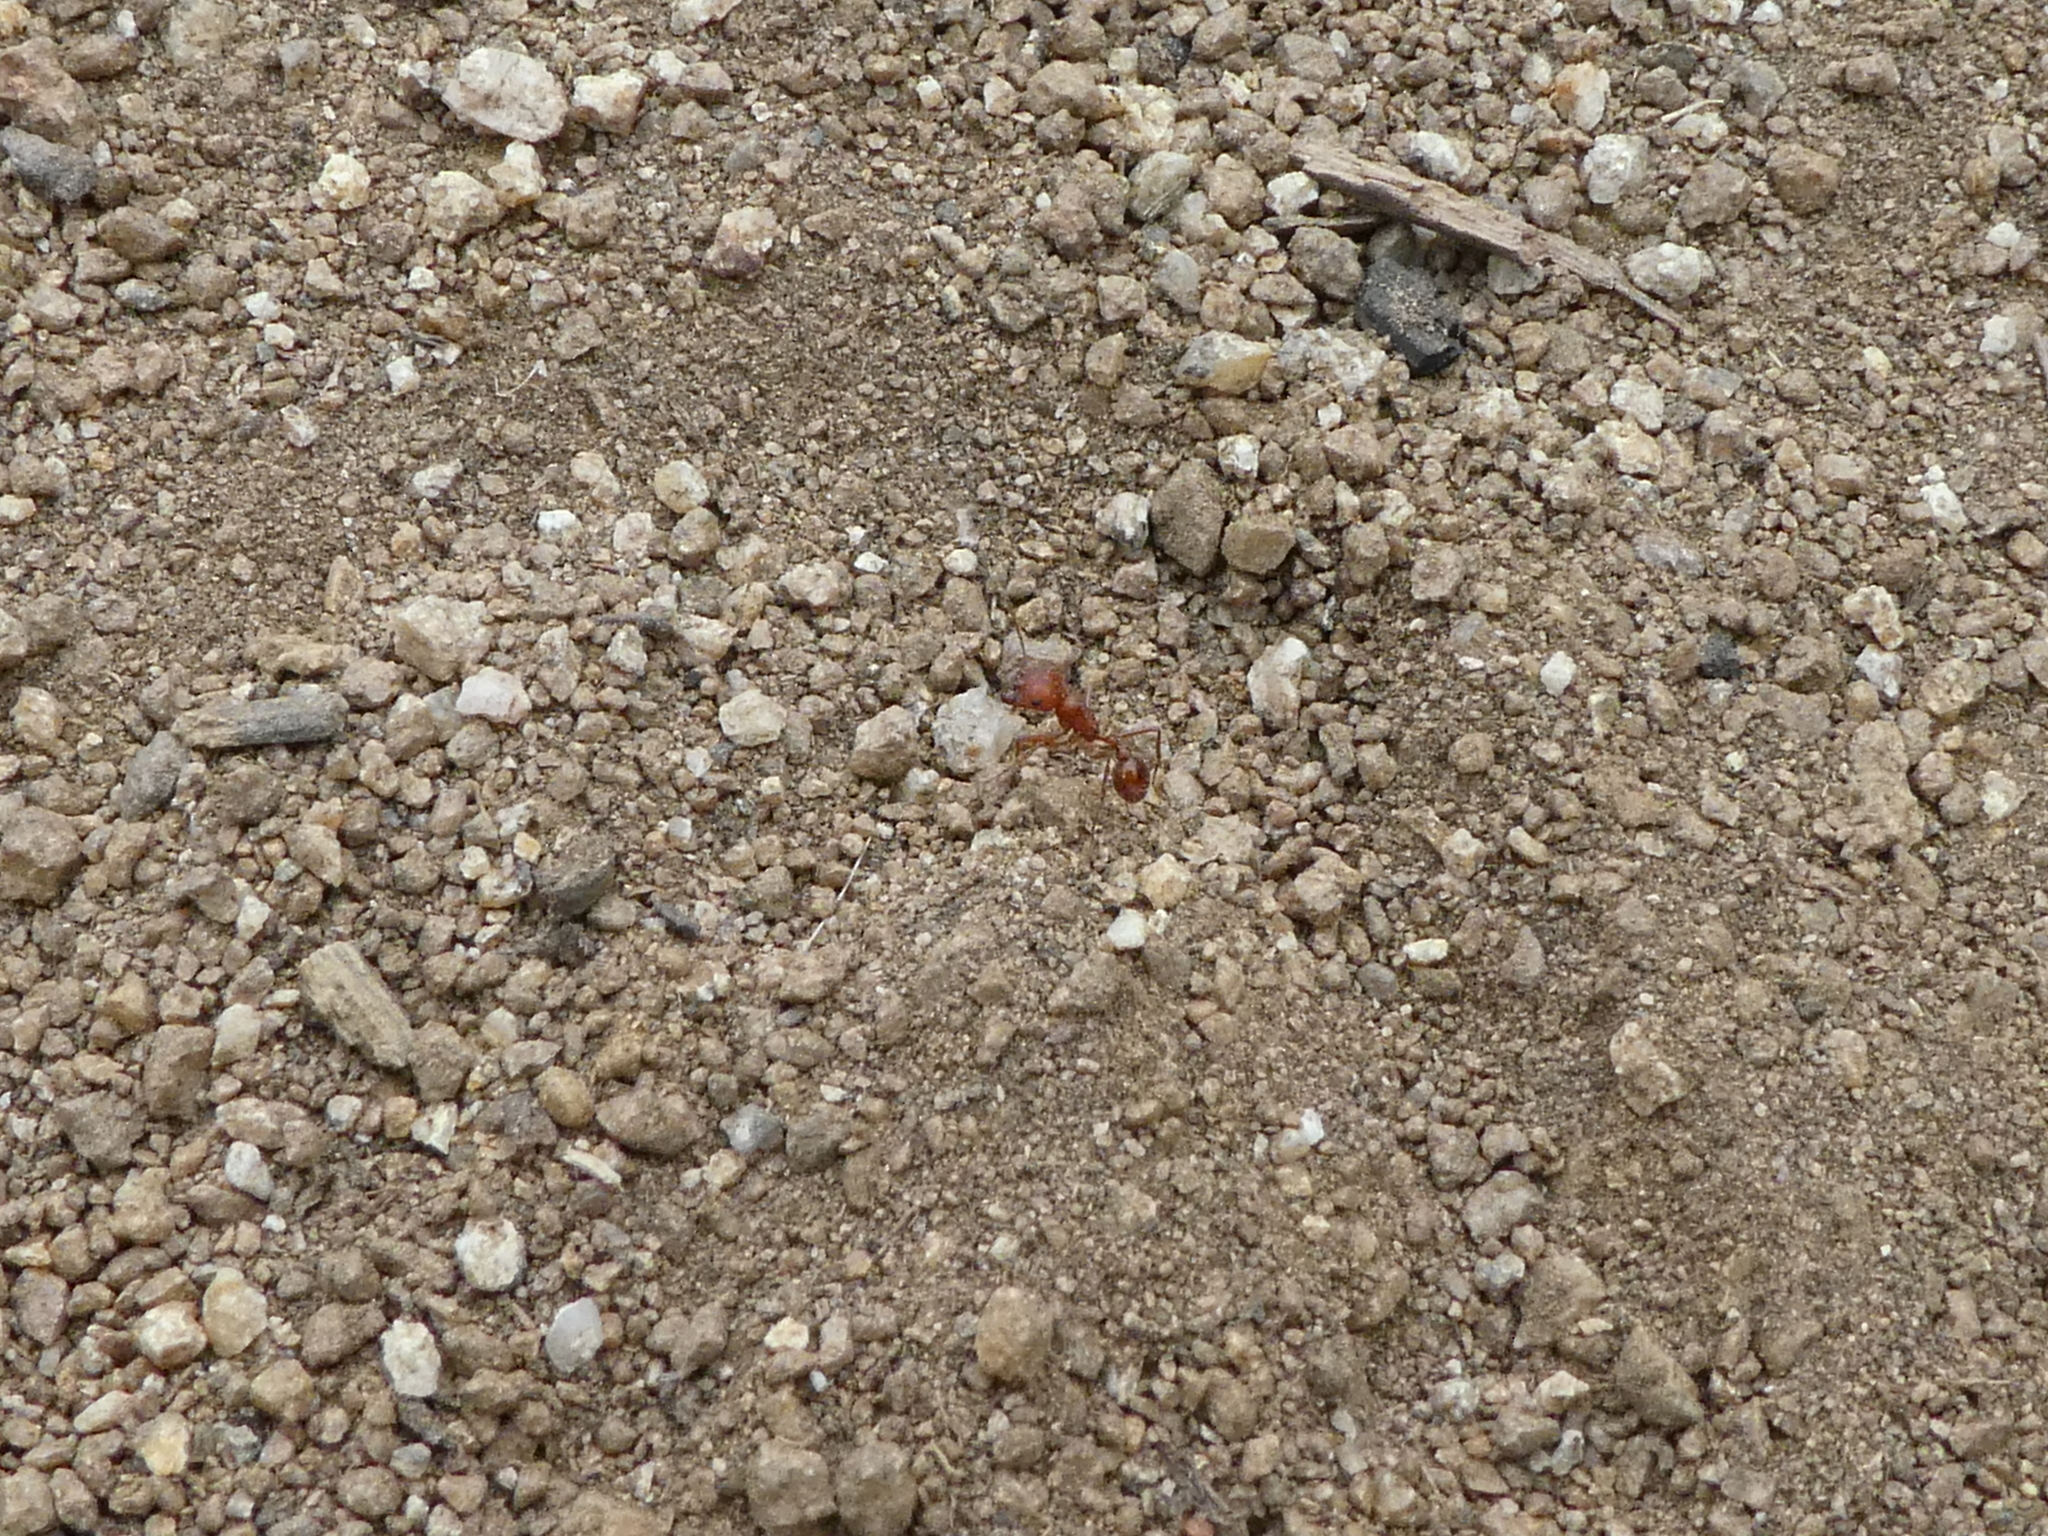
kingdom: Animalia
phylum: Arthropoda
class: Insecta
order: Hymenoptera
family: Formicidae
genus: Pogonomyrmex
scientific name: Pogonomyrmex californicus
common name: California harvester ant
